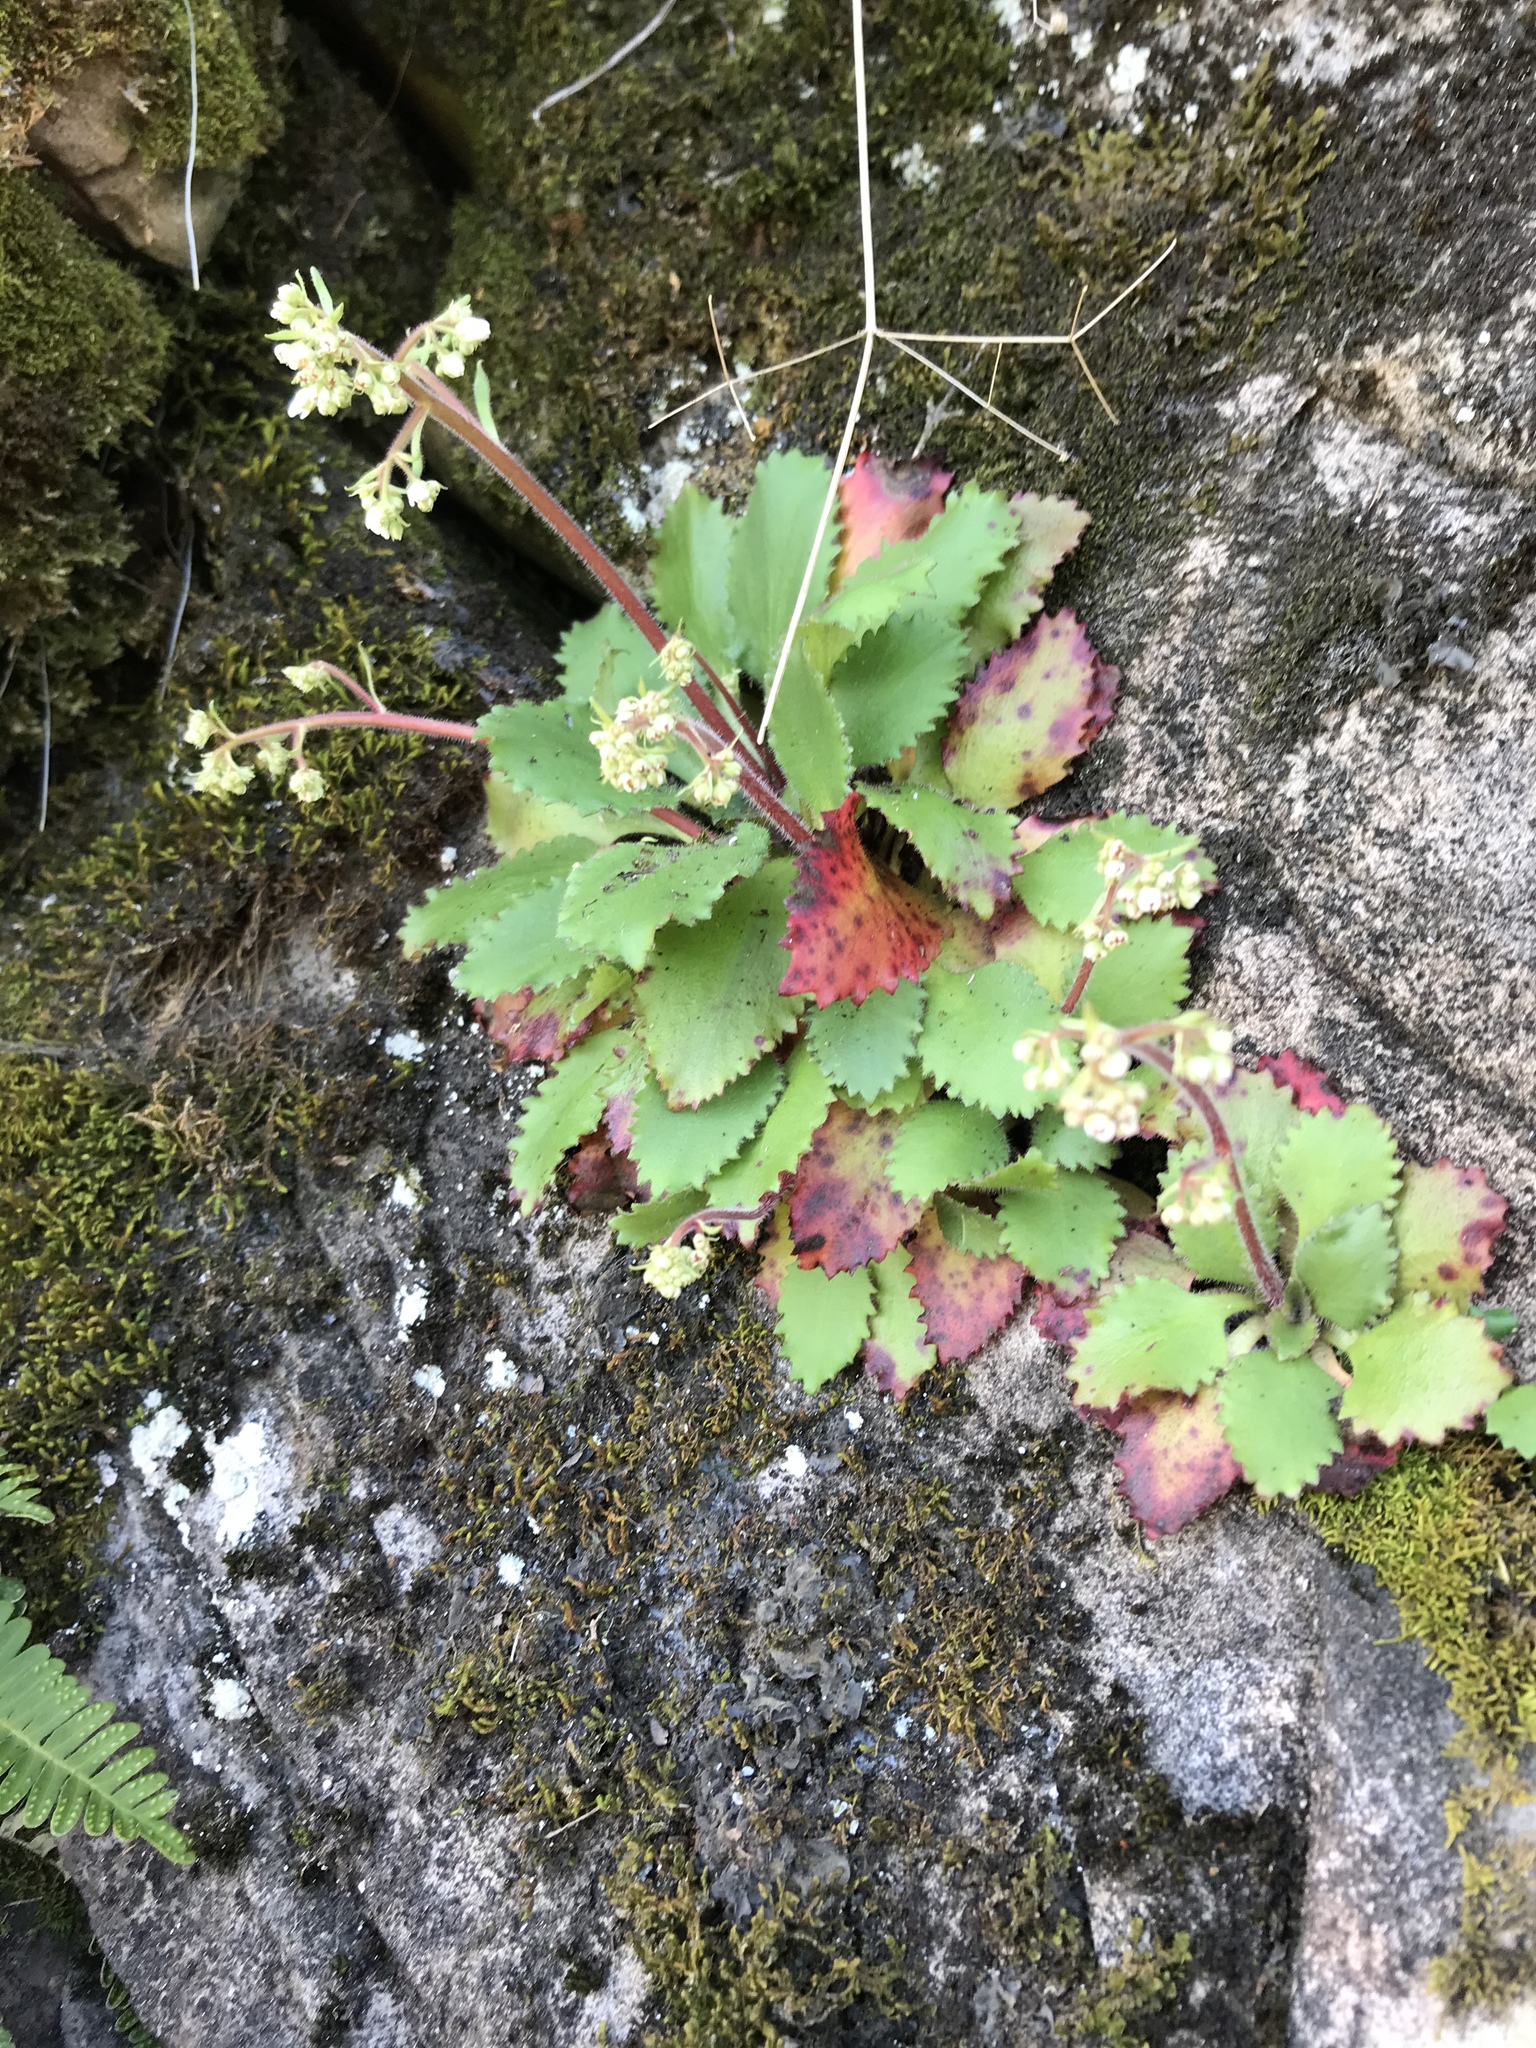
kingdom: Plantae
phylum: Tracheophyta
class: Magnoliopsida
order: Saxifragales
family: Saxifragaceae
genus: Micranthes
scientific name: Micranthes virginiensis
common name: Early saxifrage
